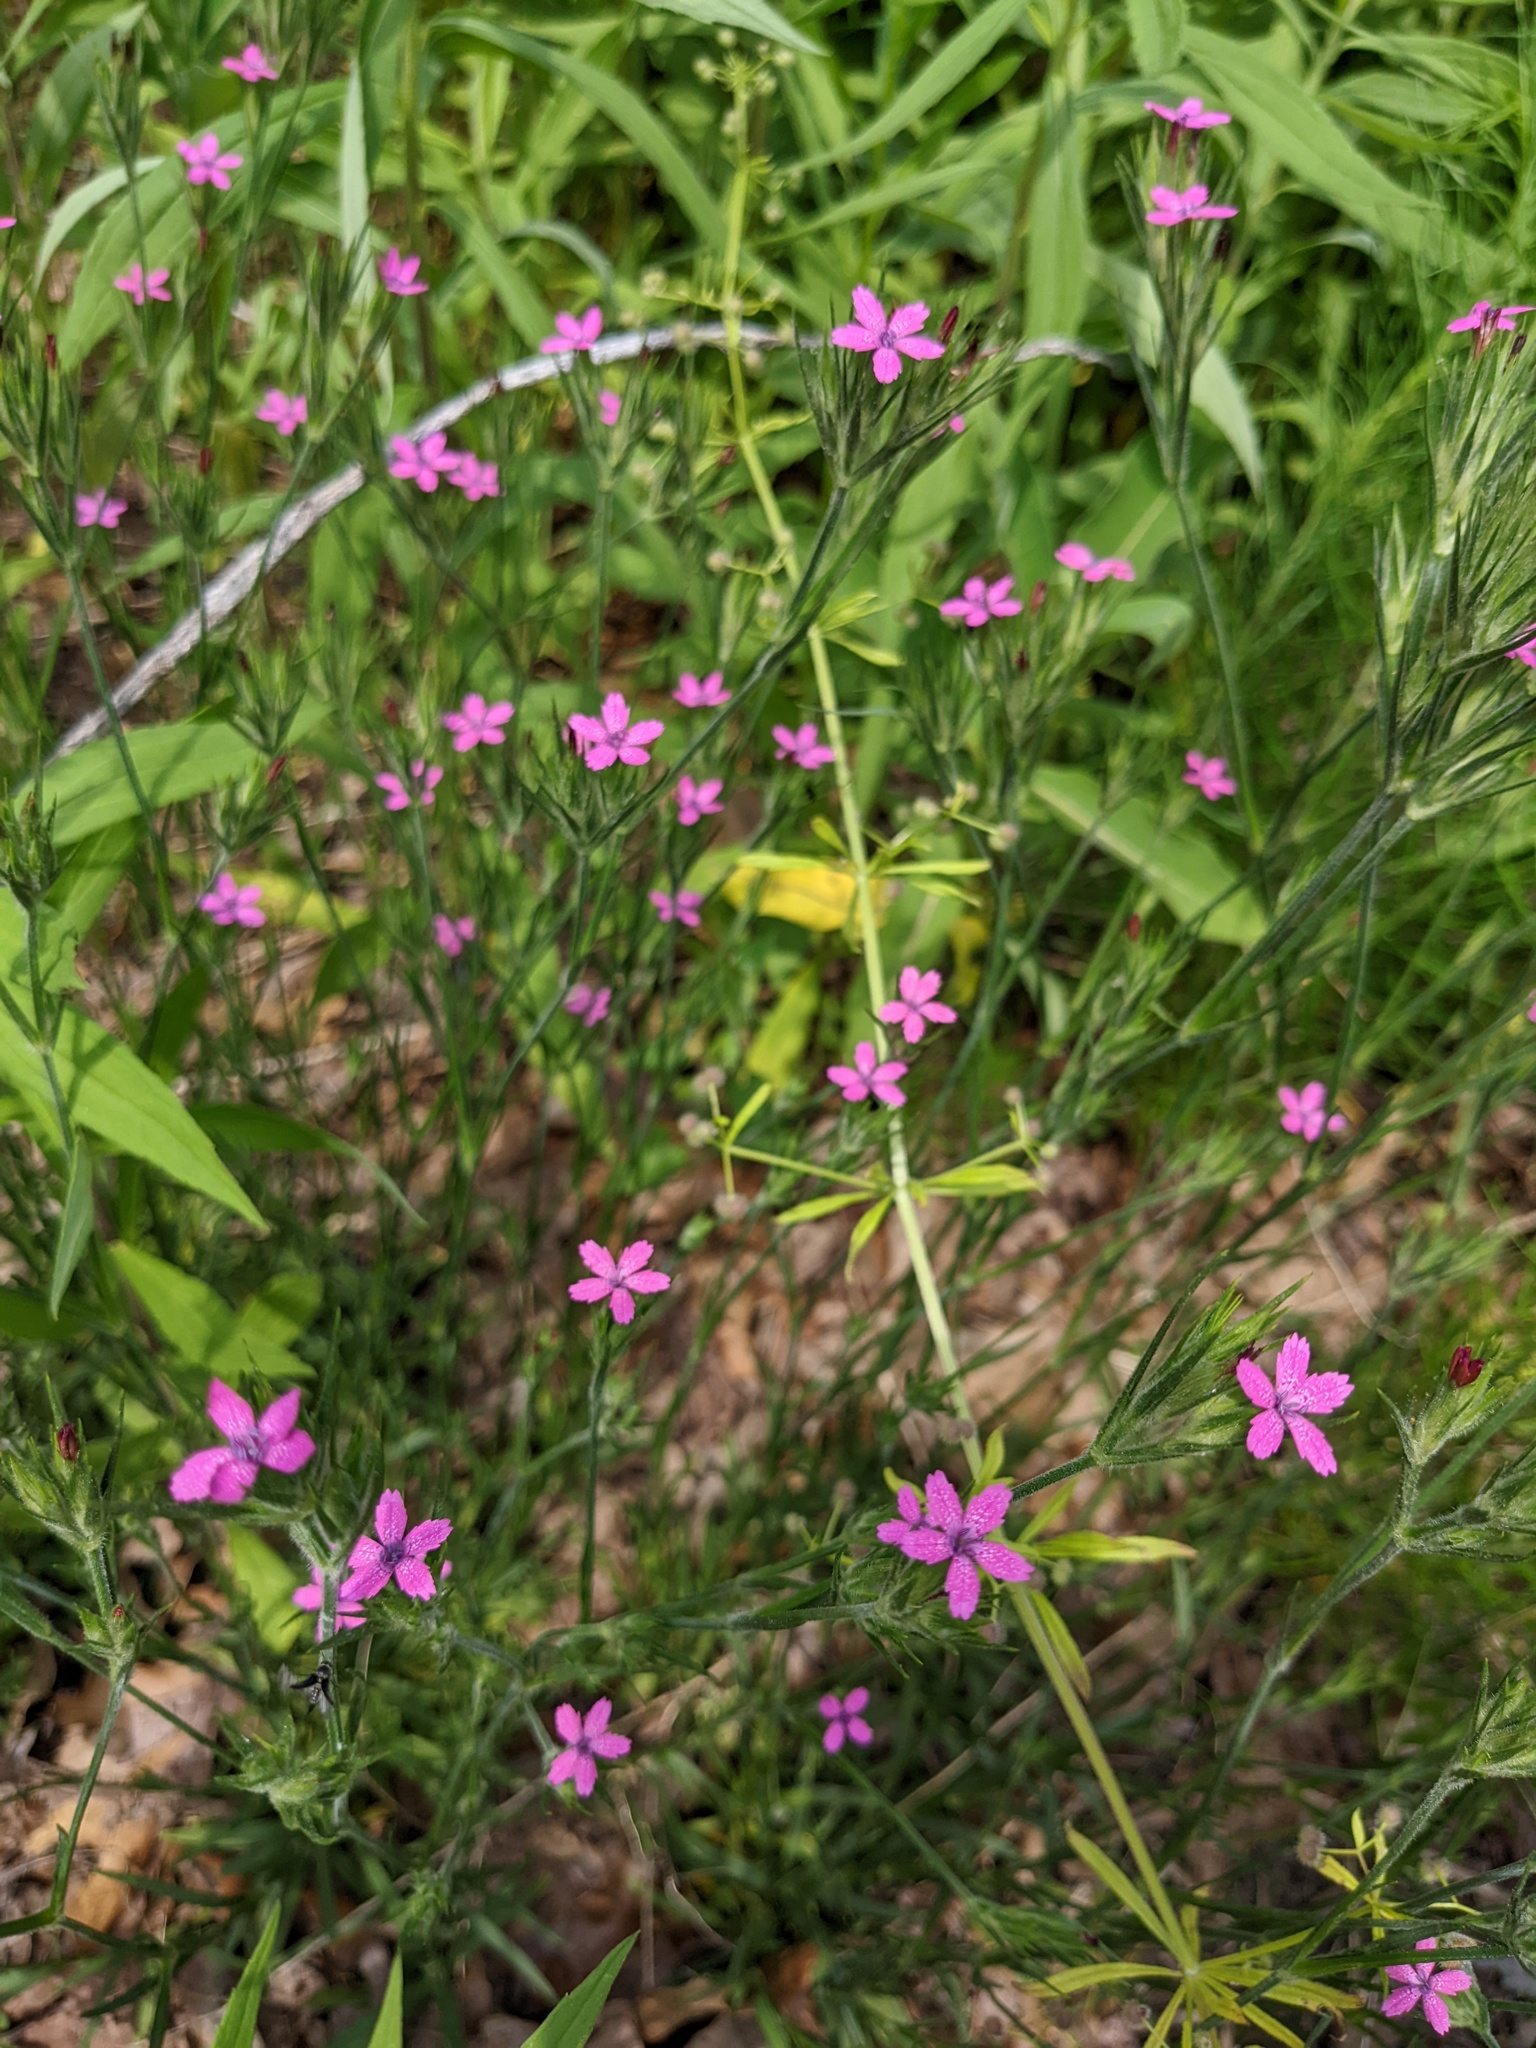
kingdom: Plantae
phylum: Tracheophyta
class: Magnoliopsida
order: Caryophyllales
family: Caryophyllaceae
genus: Dianthus
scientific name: Dianthus armeria
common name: Deptford pink
